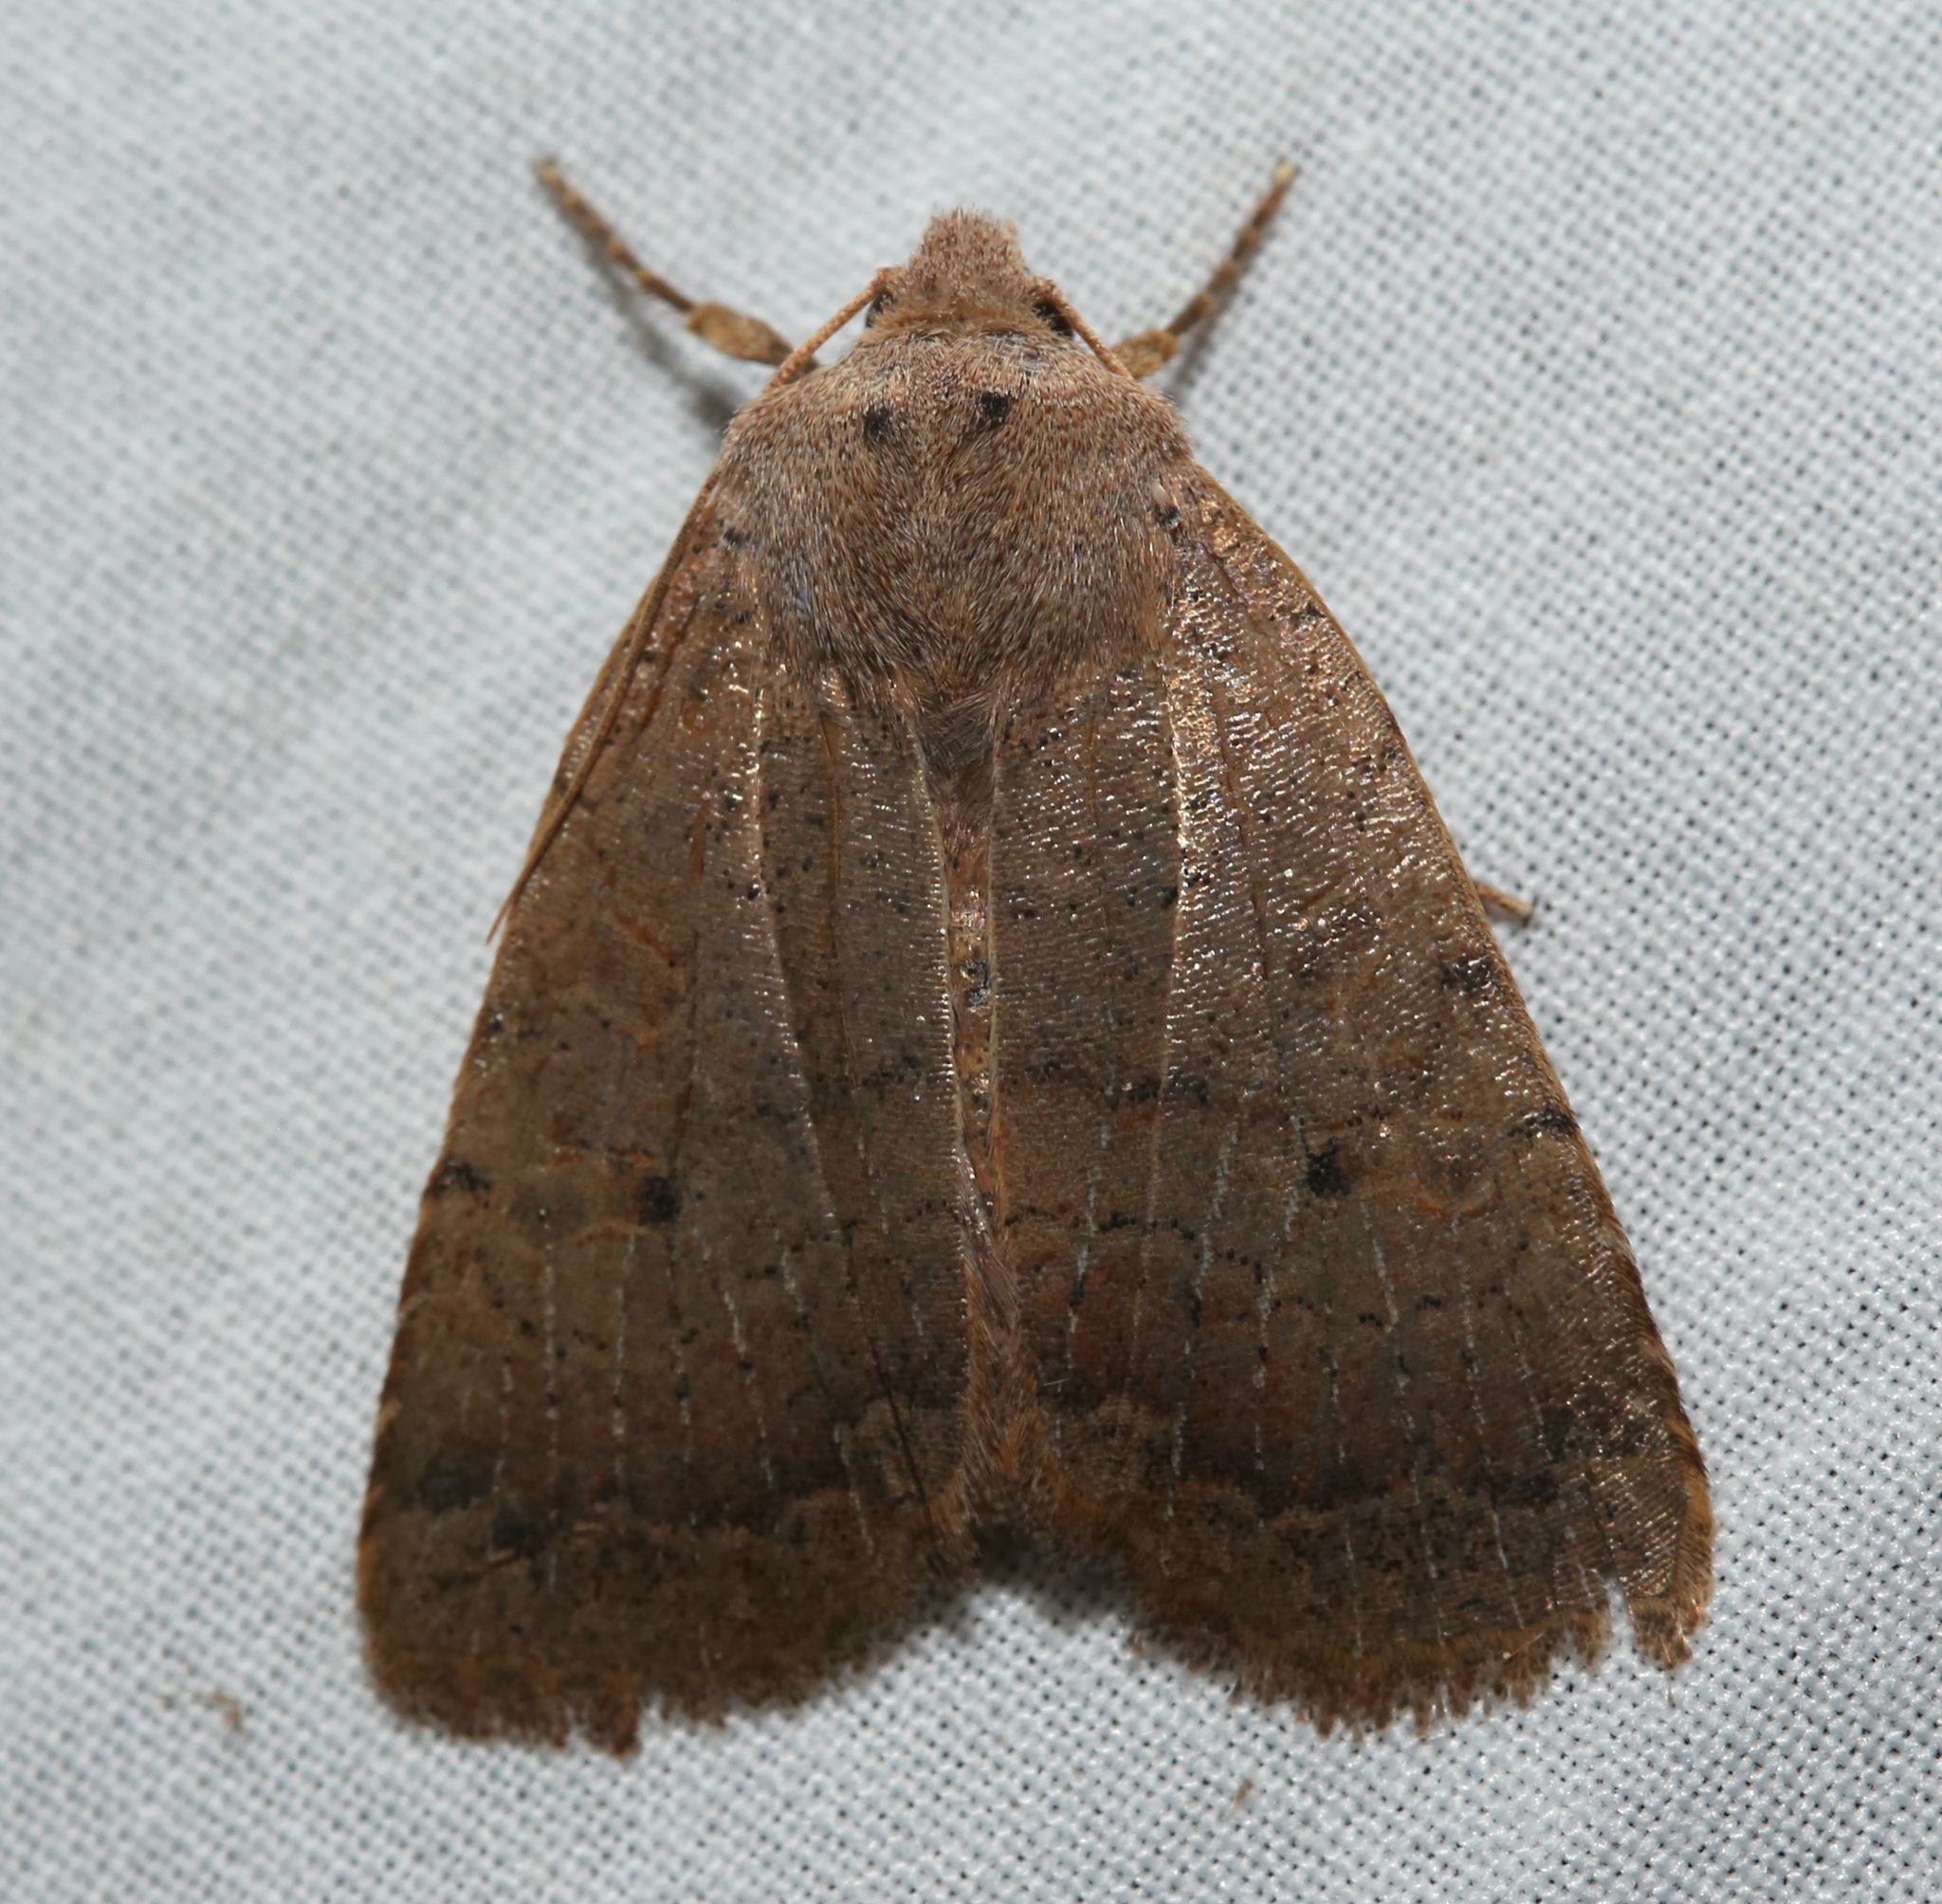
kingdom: Animalia
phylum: Arthropoda
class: Insecta
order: Lepidoptera
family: Noctuidae
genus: Sericaglaea
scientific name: Sericaglaea signata
